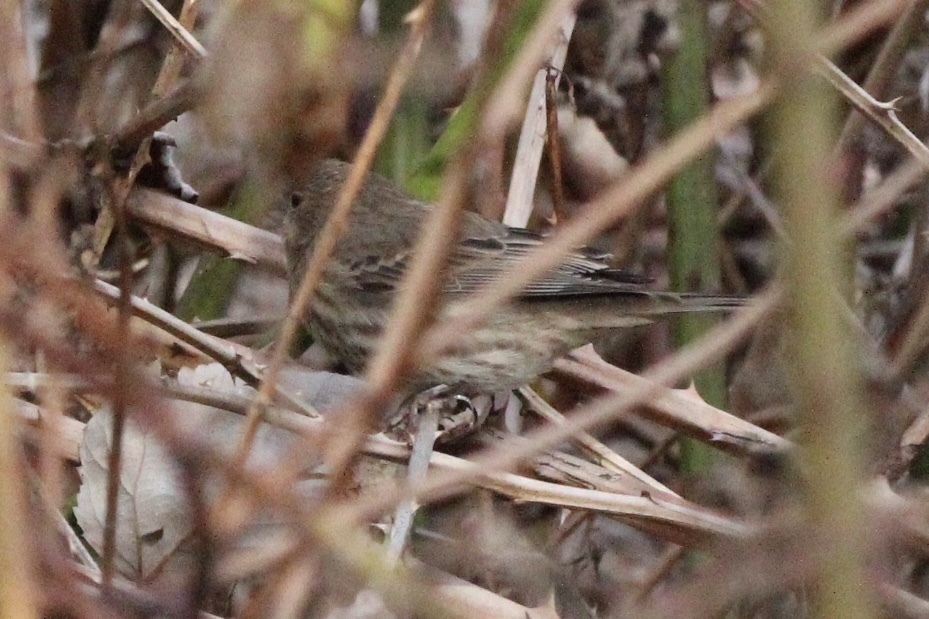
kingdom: Animalia
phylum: Chordata
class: Aves
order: Passeriformes
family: Fringillidae
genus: Haemorhous
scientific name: Haemorhous mexicanus
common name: House finch
